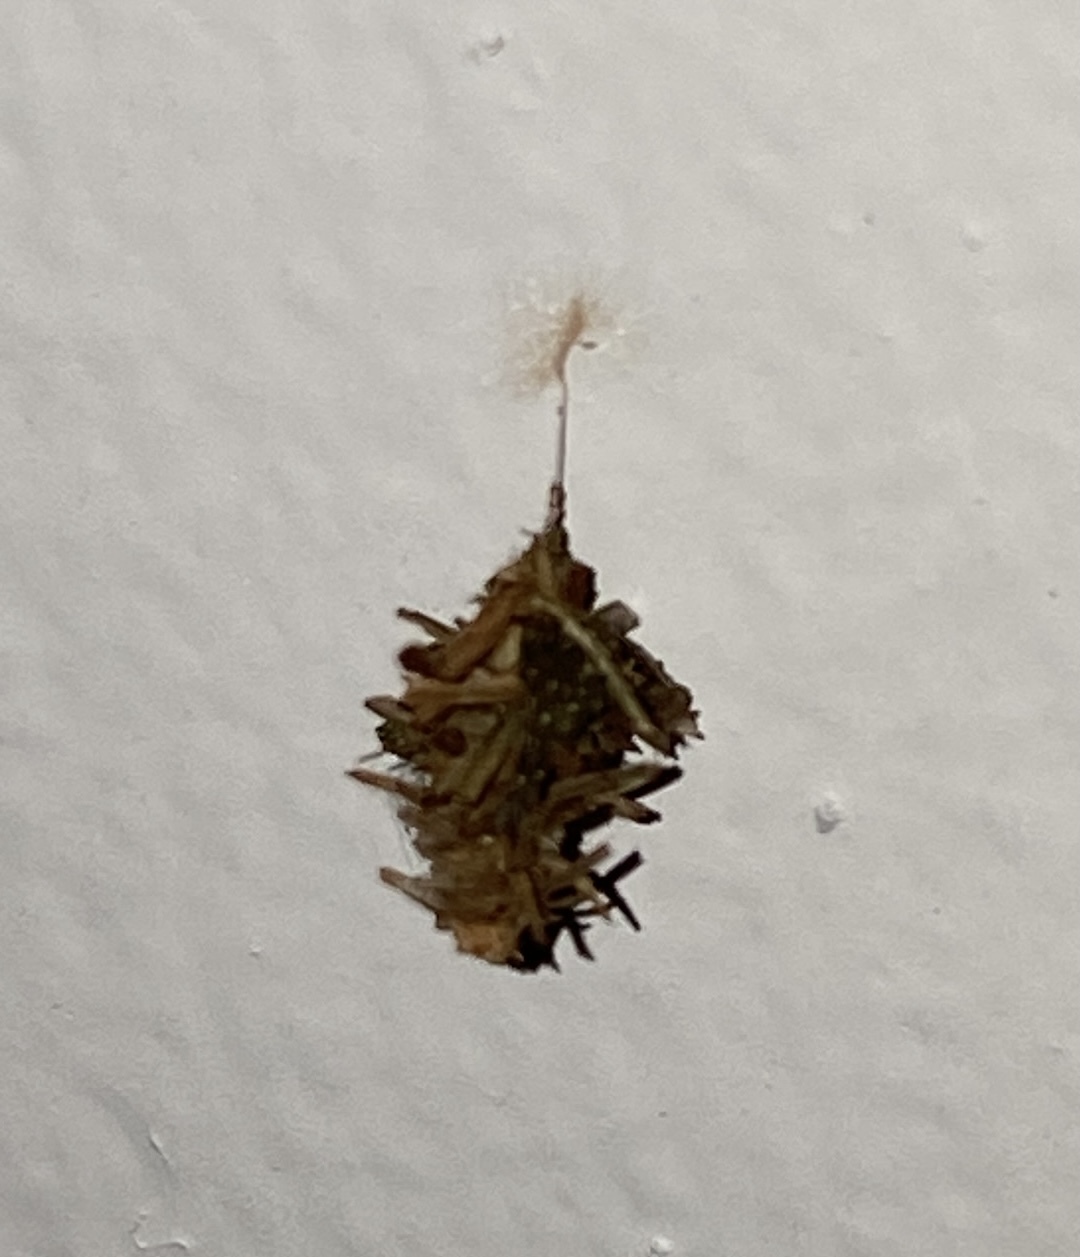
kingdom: Animalia
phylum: Arthropoda
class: Insecta
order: Lepidoptera
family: Psychidae
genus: Brachycyttarus
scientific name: Brachycyttarus griseus
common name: Grass bagworm
